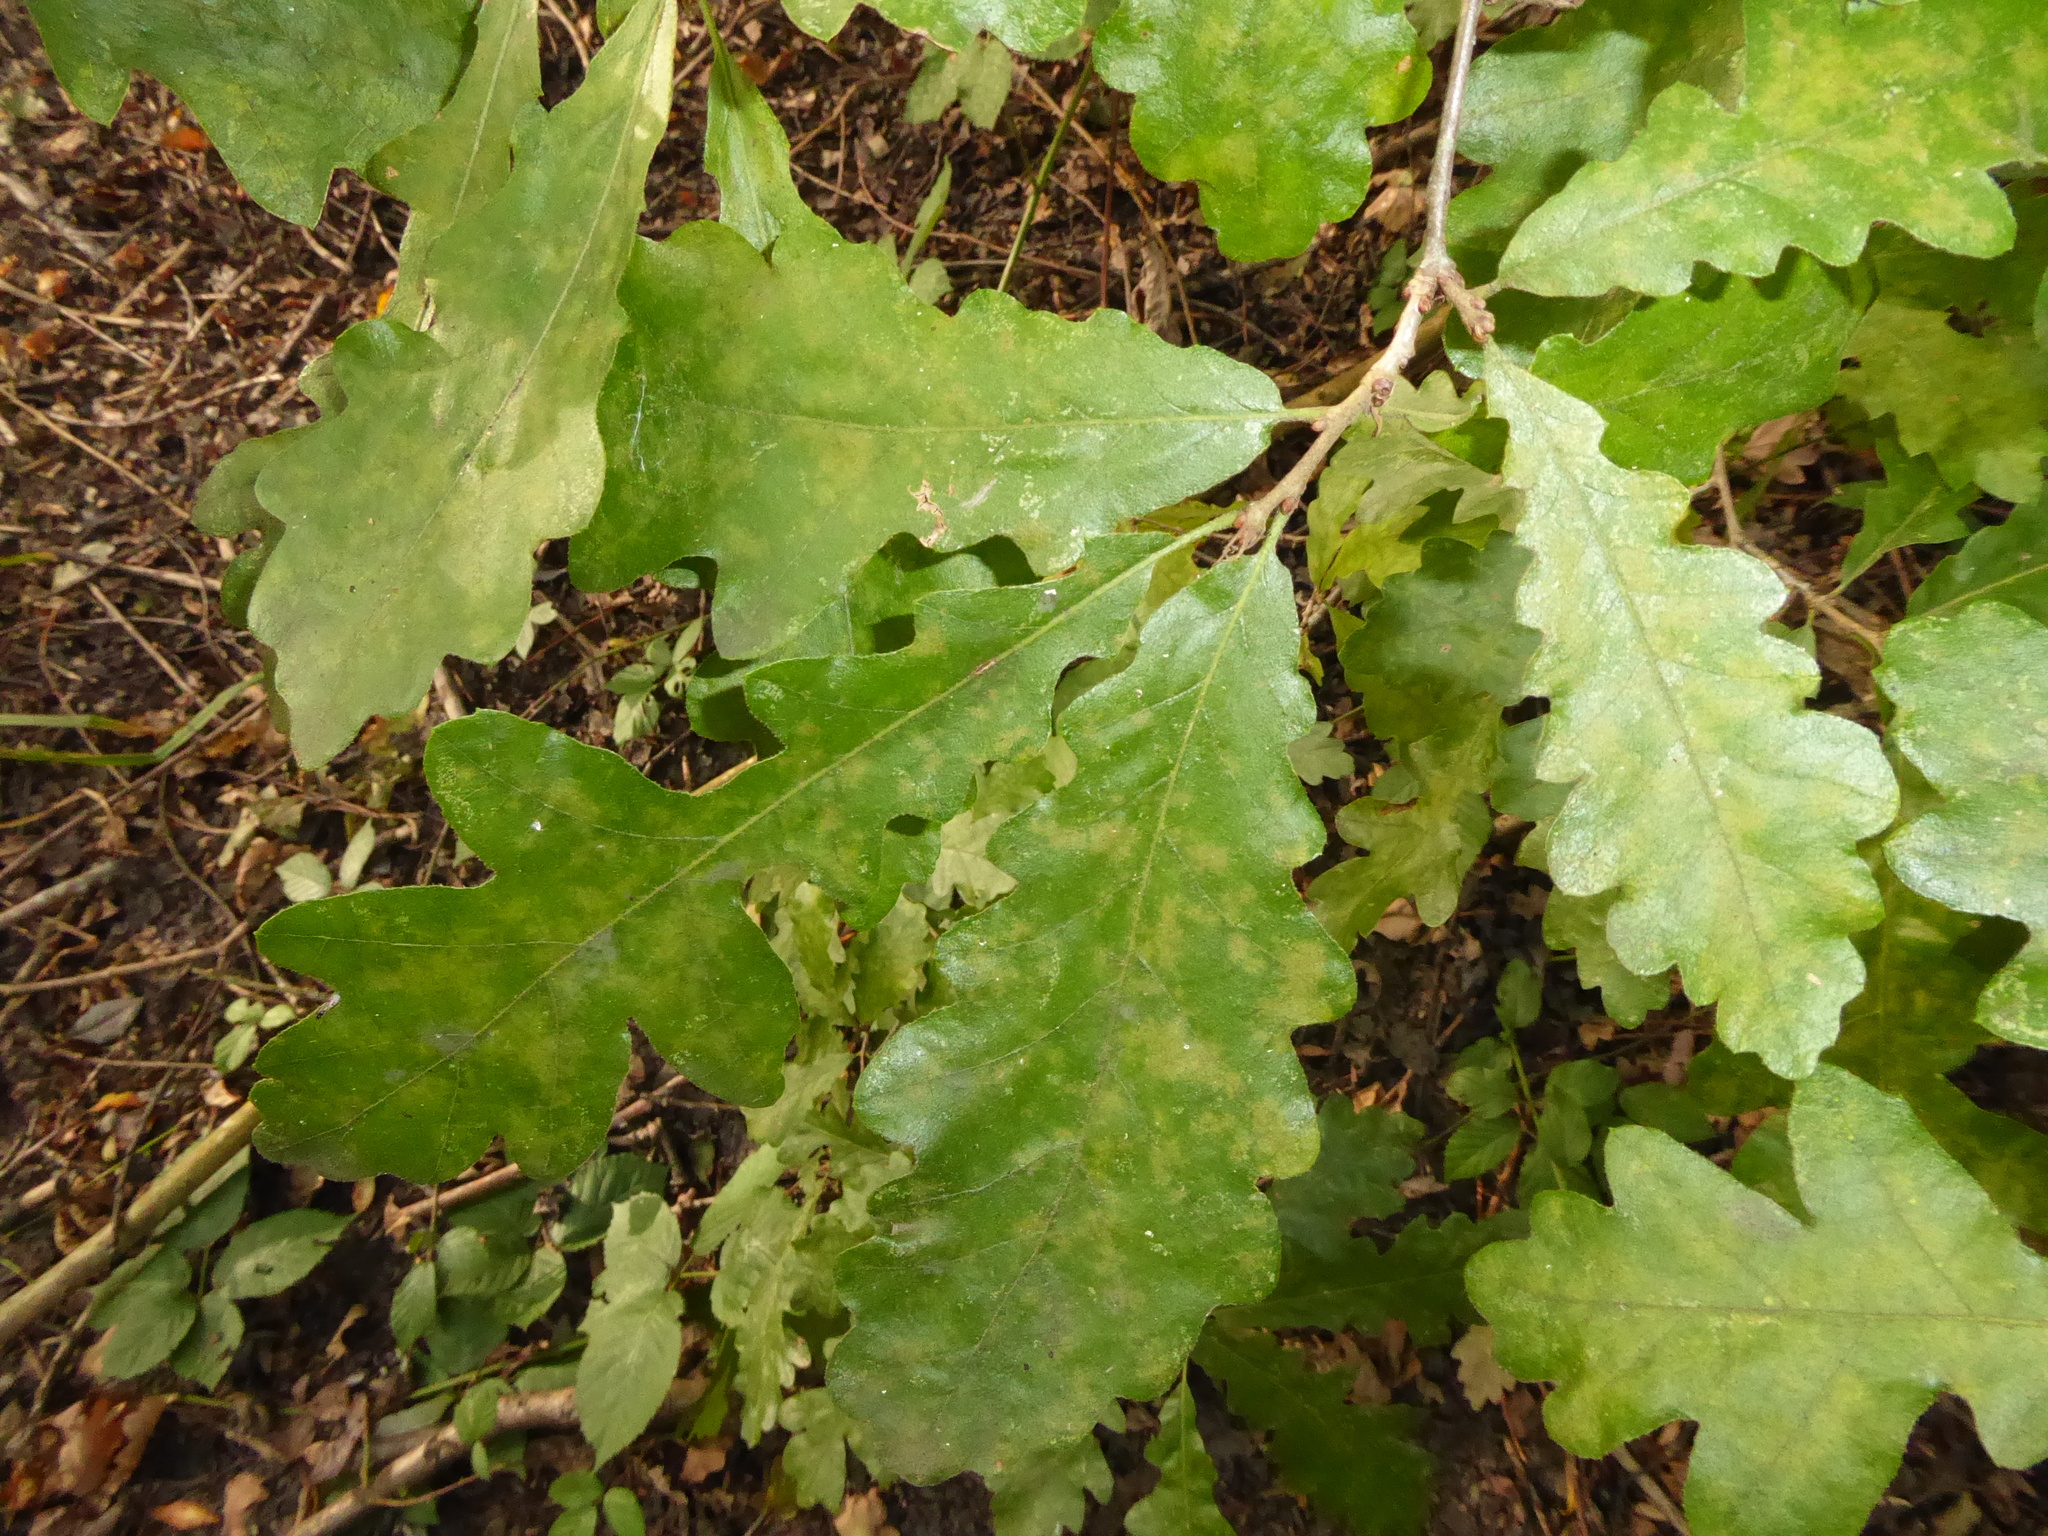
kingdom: Plantae
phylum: Tracheophyta
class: Magnoliopsida
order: Fagales
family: Fagaceae
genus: Quercus
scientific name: Quercus petraea
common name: Sessile oak
